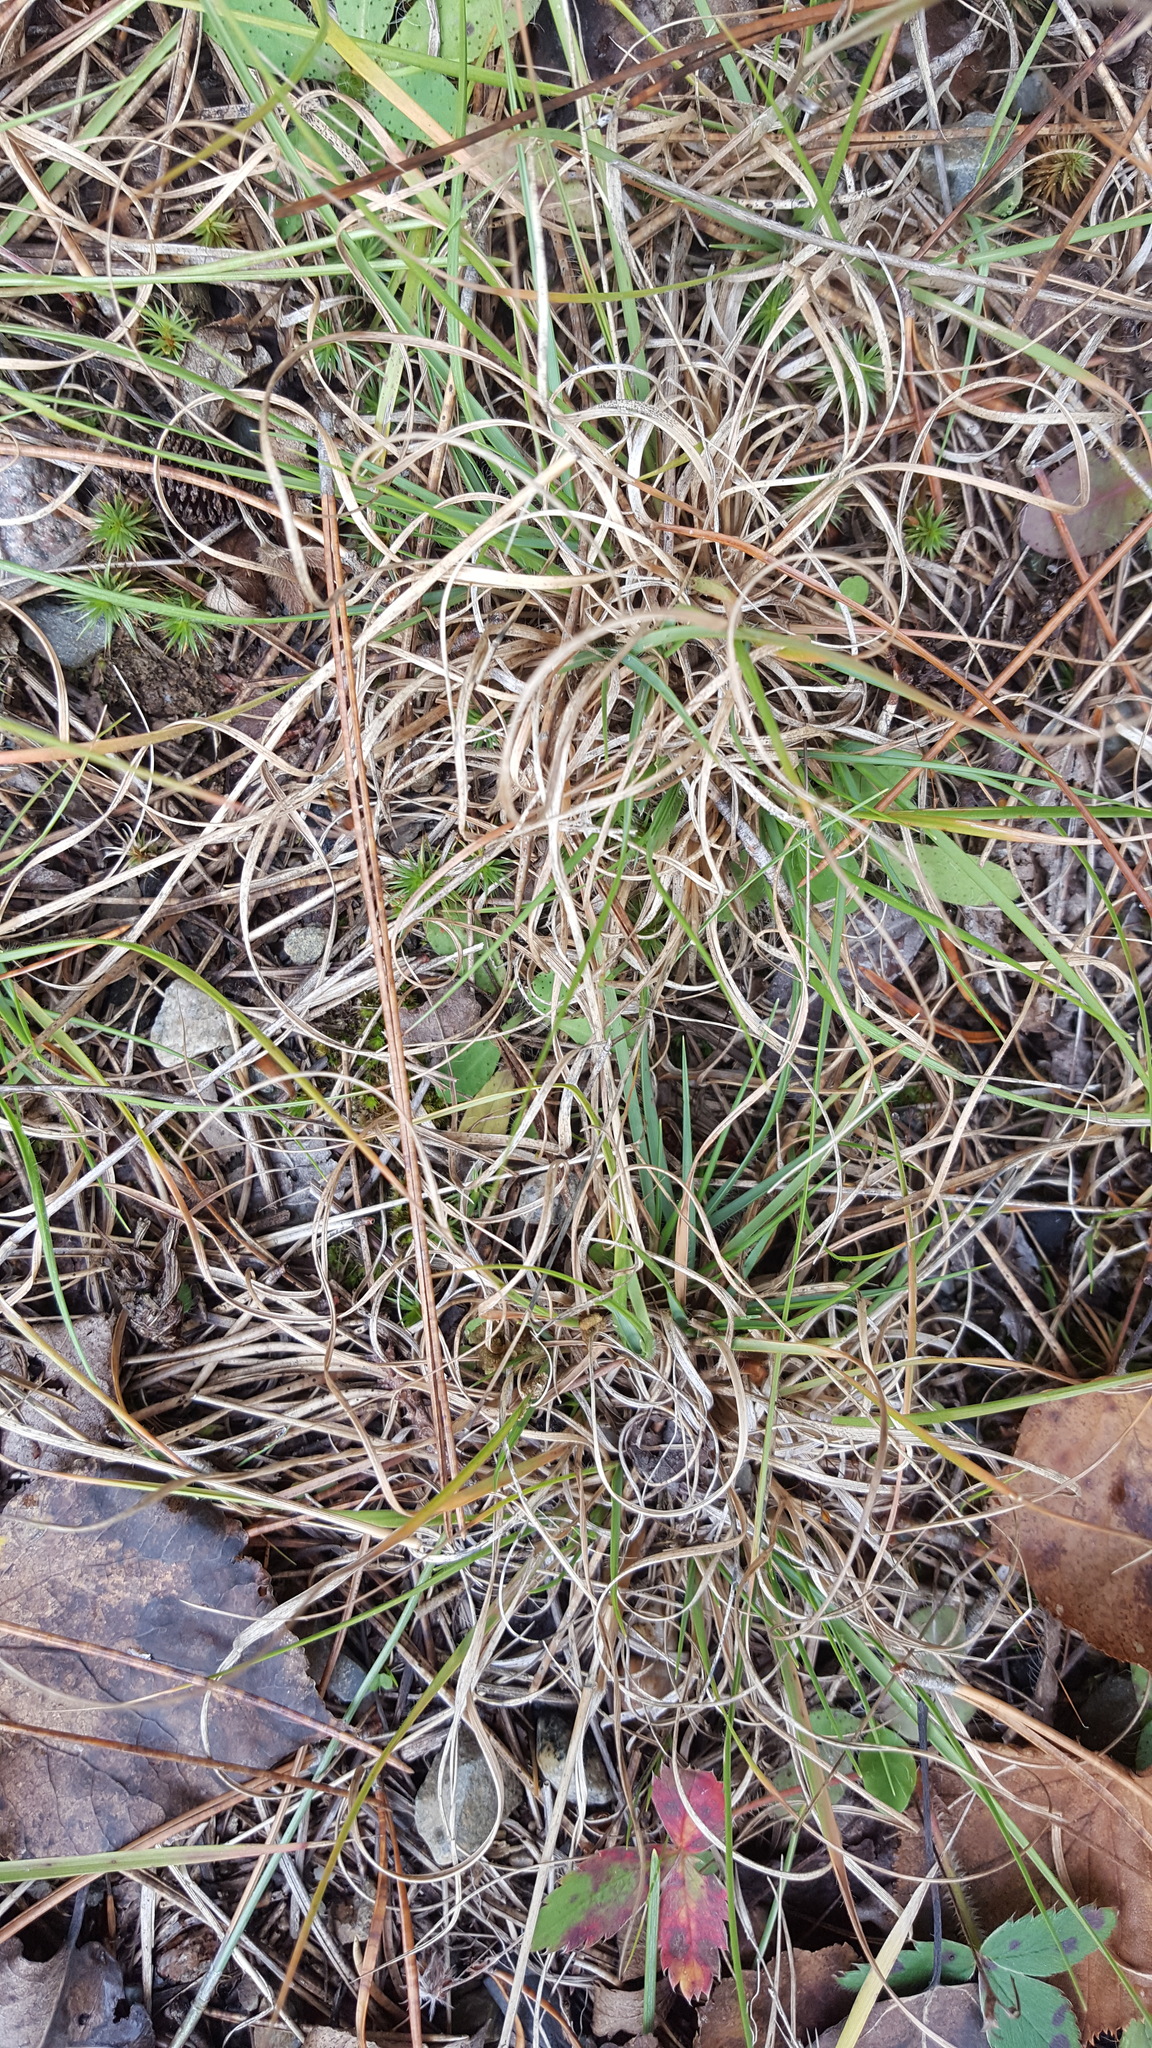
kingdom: Plantae
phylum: Tracheophyta
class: Liliopsida
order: Poales
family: Poaceae
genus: Danthonia
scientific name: Danthonia spicata
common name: Common wild oatgrass
